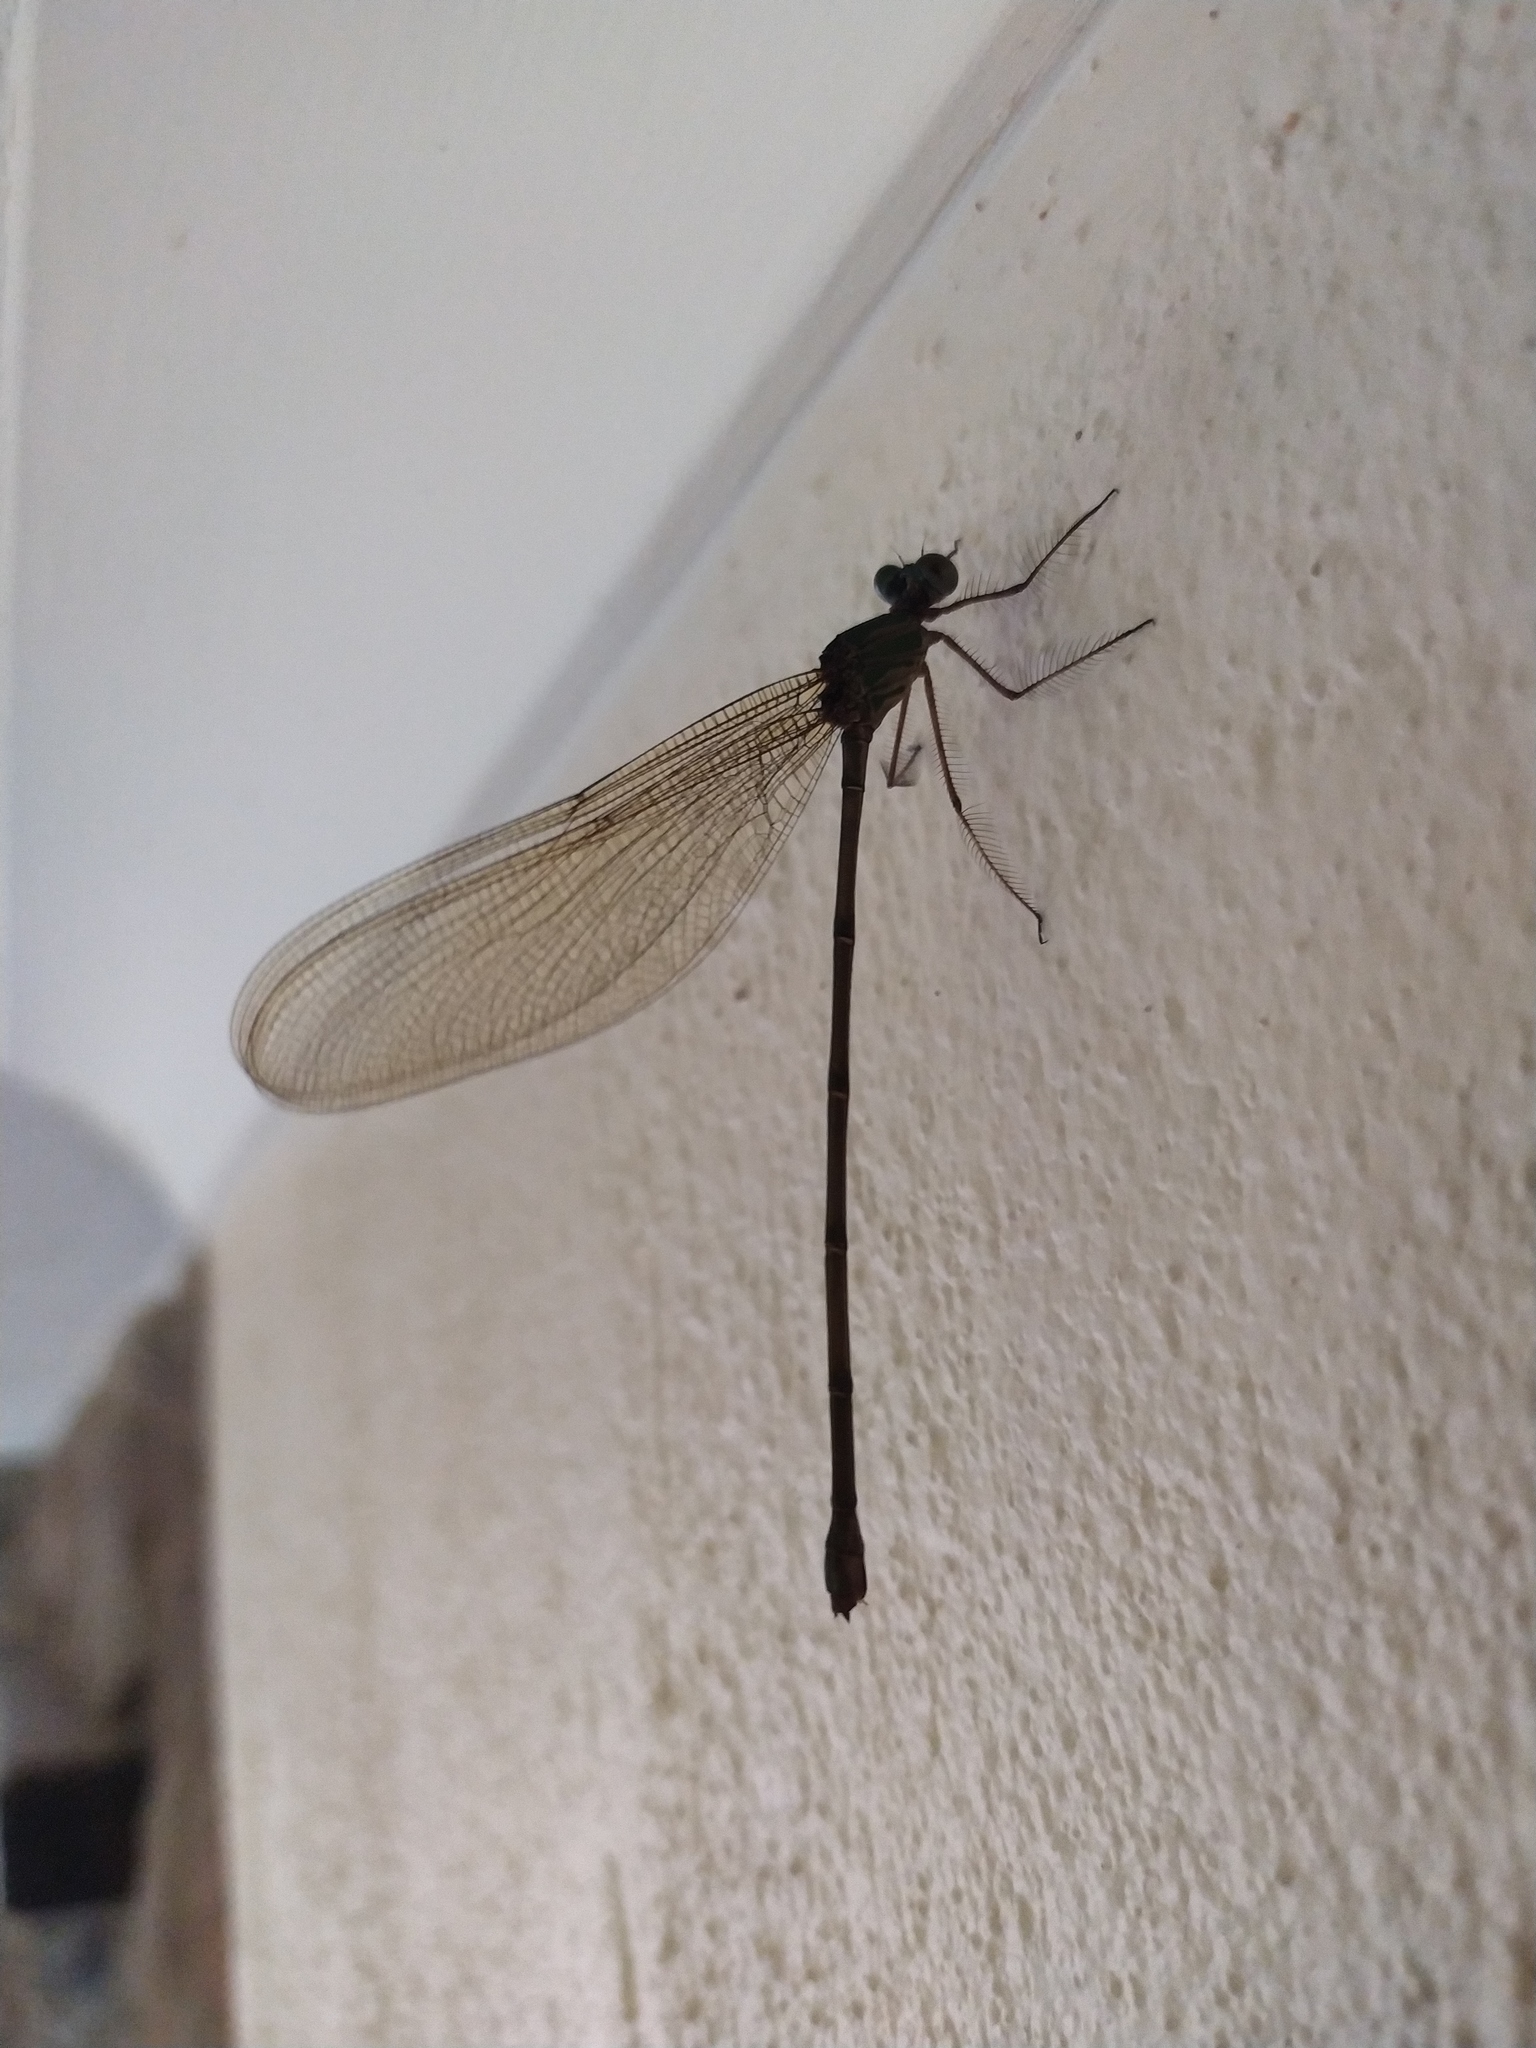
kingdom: Animalia
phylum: Arthropoda
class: Insecta
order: Odonata
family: Calopterygidae
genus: Phaon
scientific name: Phaon iridipennis
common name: Glistening demoiselle
